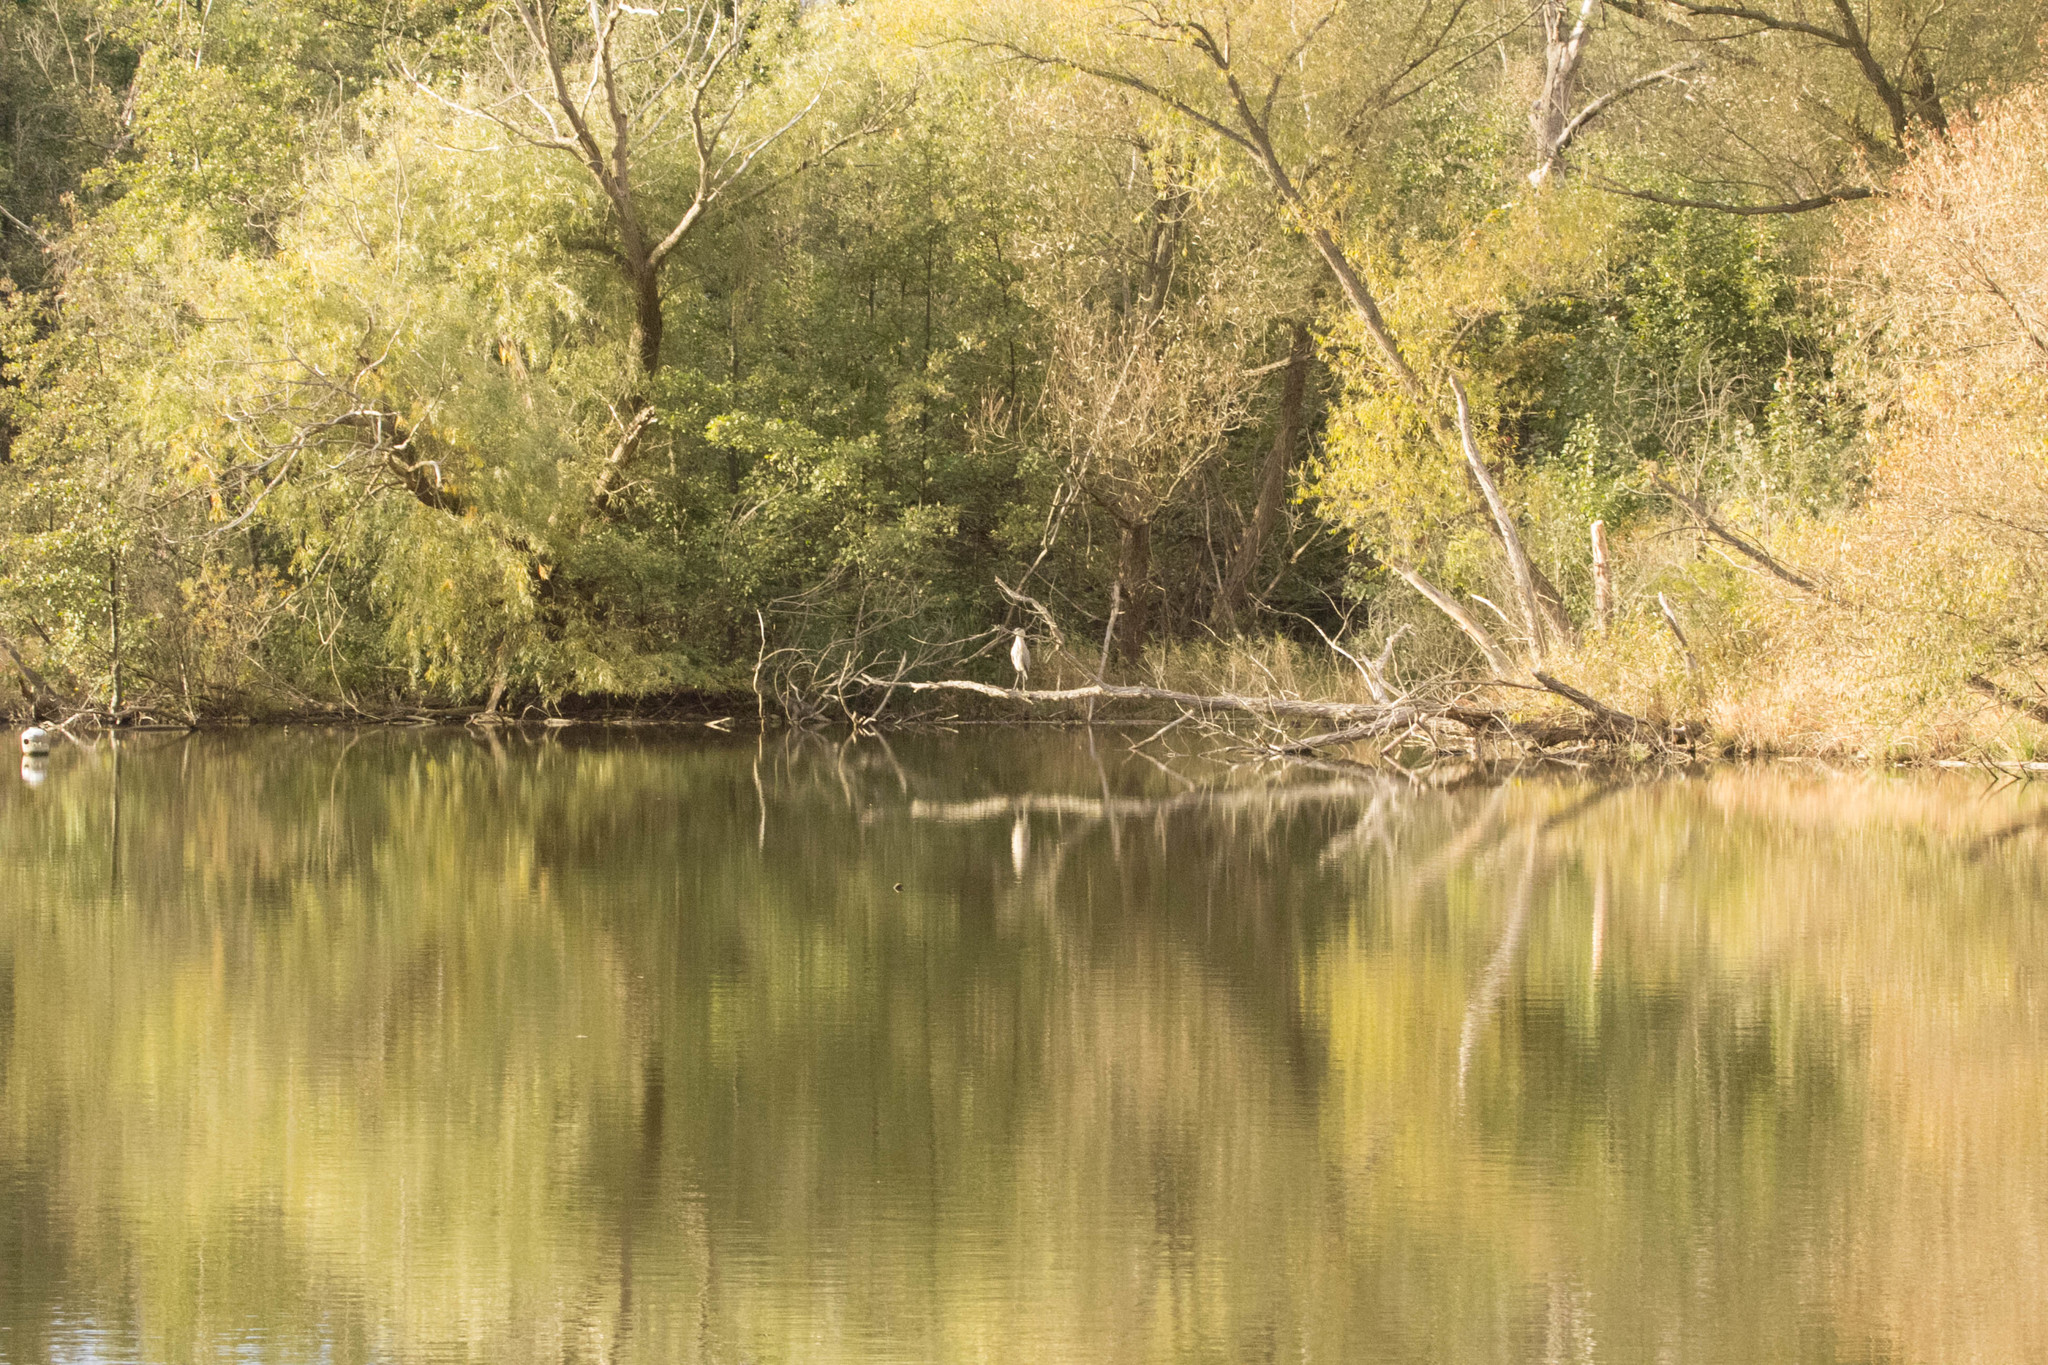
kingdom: Animalia
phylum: Chordata
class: Aves
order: Pelecaniformes
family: Ardeidae
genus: Ardea
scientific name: Ardea herodias
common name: Great blue heron
